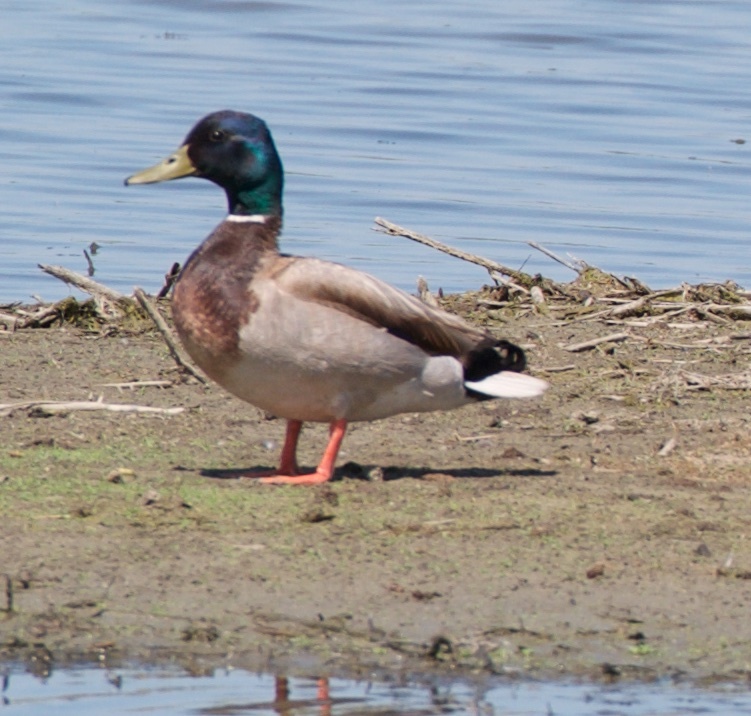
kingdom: Animalia
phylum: Chordata
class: Aves
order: Anseriformes
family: Anatidae
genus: Anas
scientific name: Anas platyrhynchos
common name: Mallard
